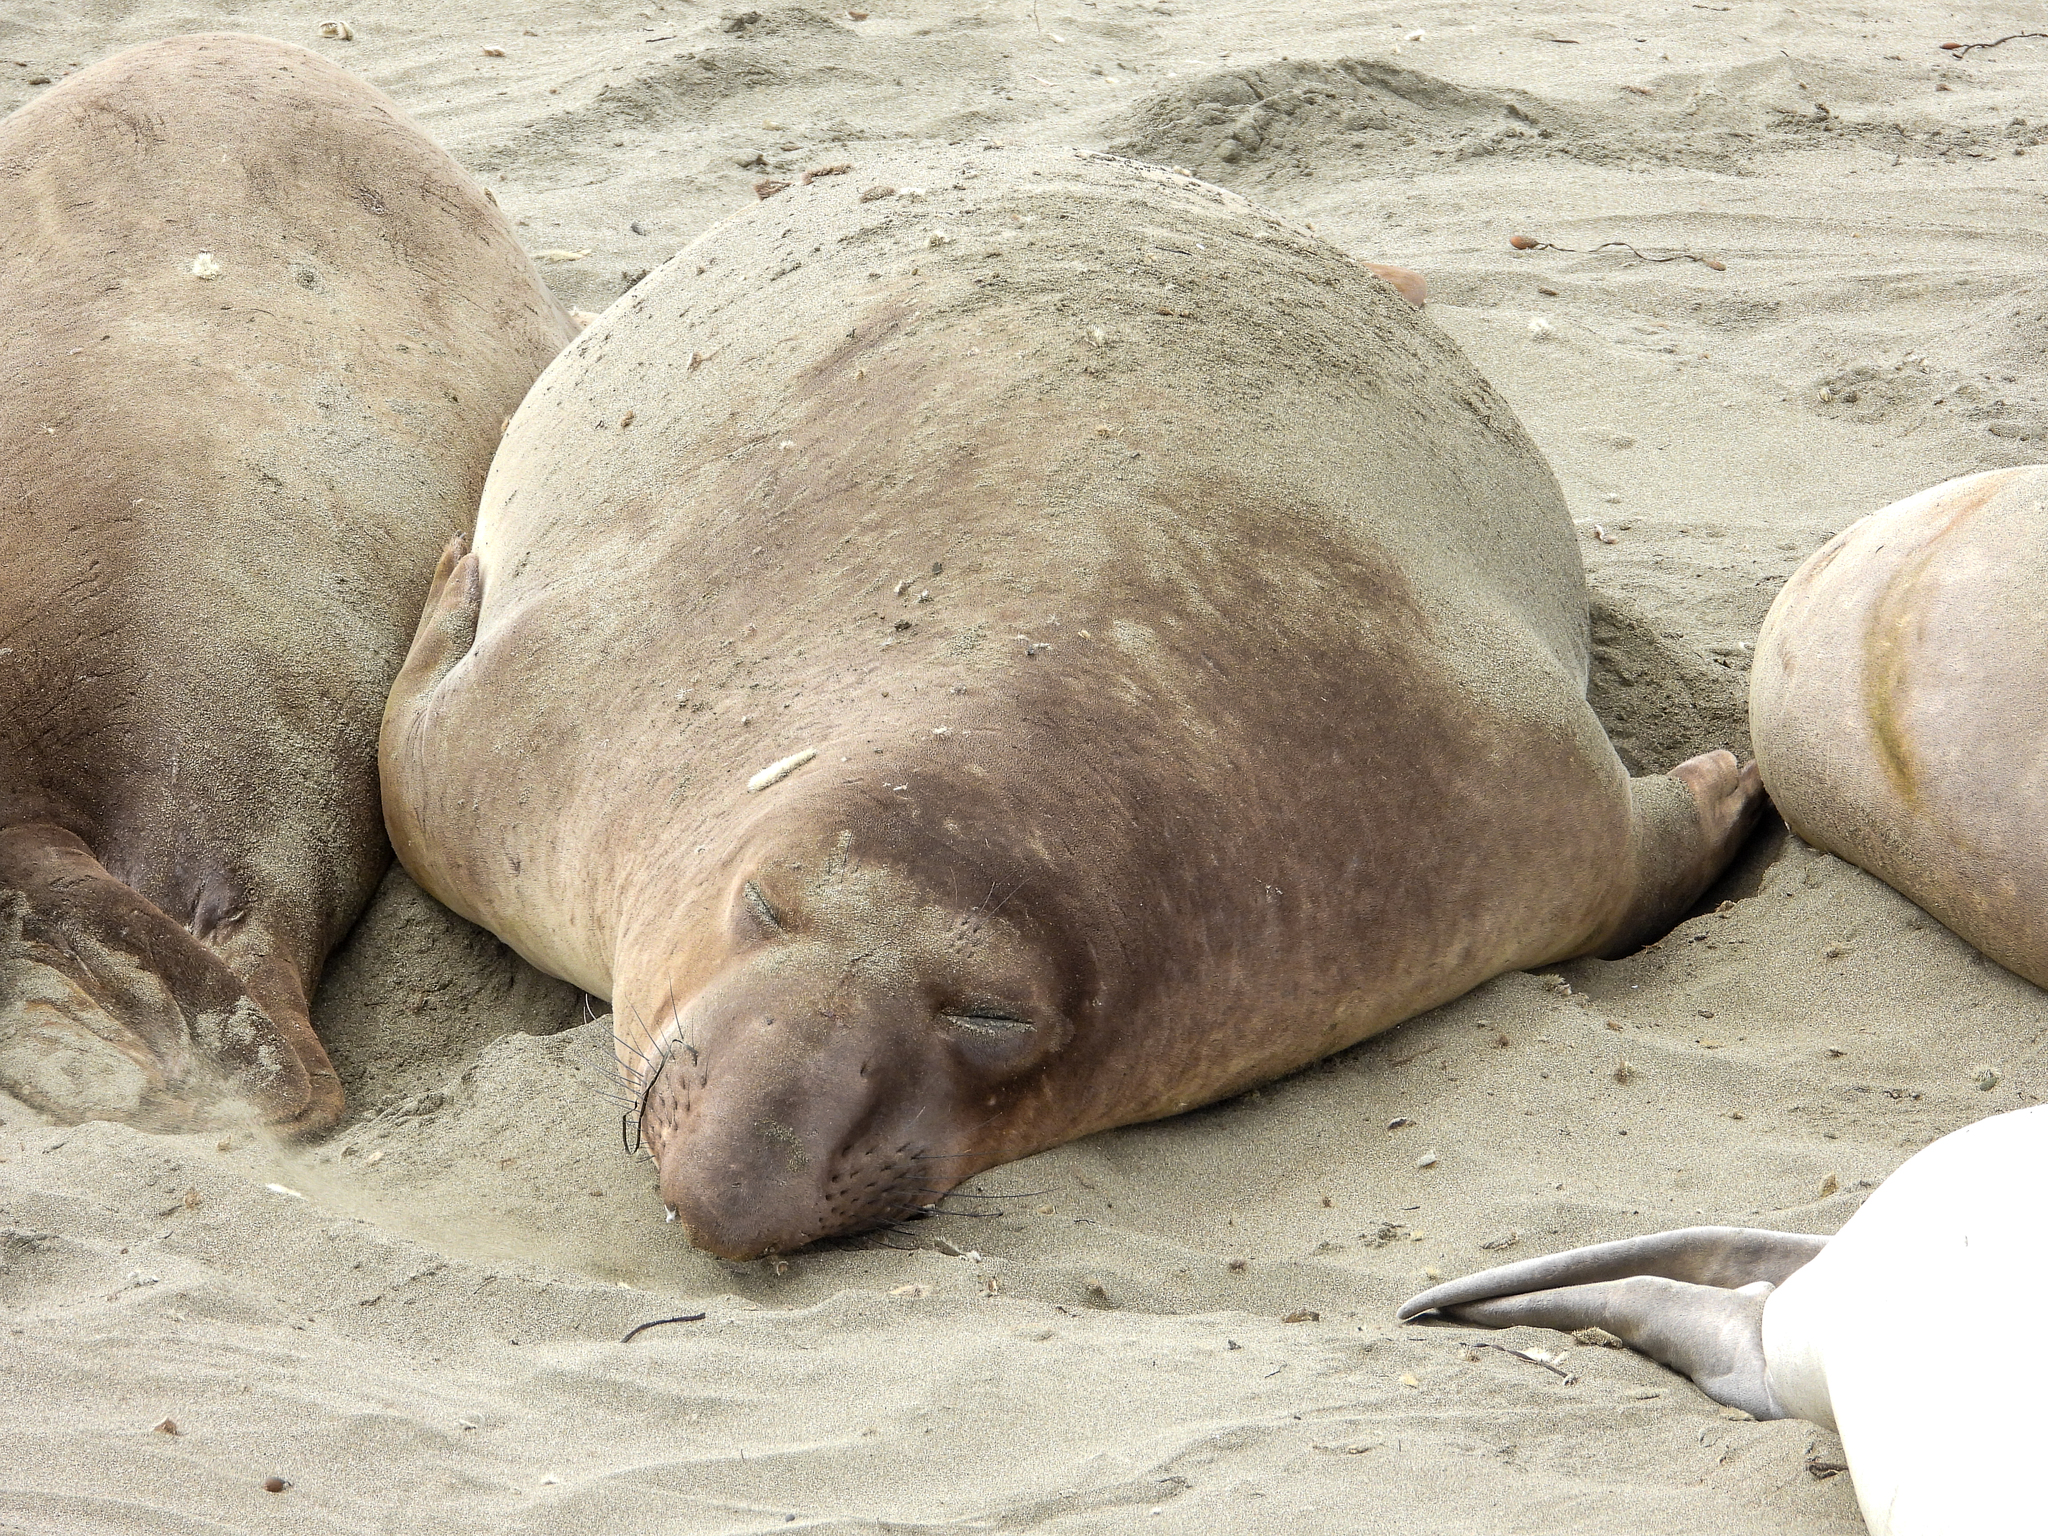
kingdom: Animalia
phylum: Chordata
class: Mammalia
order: Carnivora
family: Phocidae
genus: Mirounga
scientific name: Mirounga angustirostris
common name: Northern elephant seal
